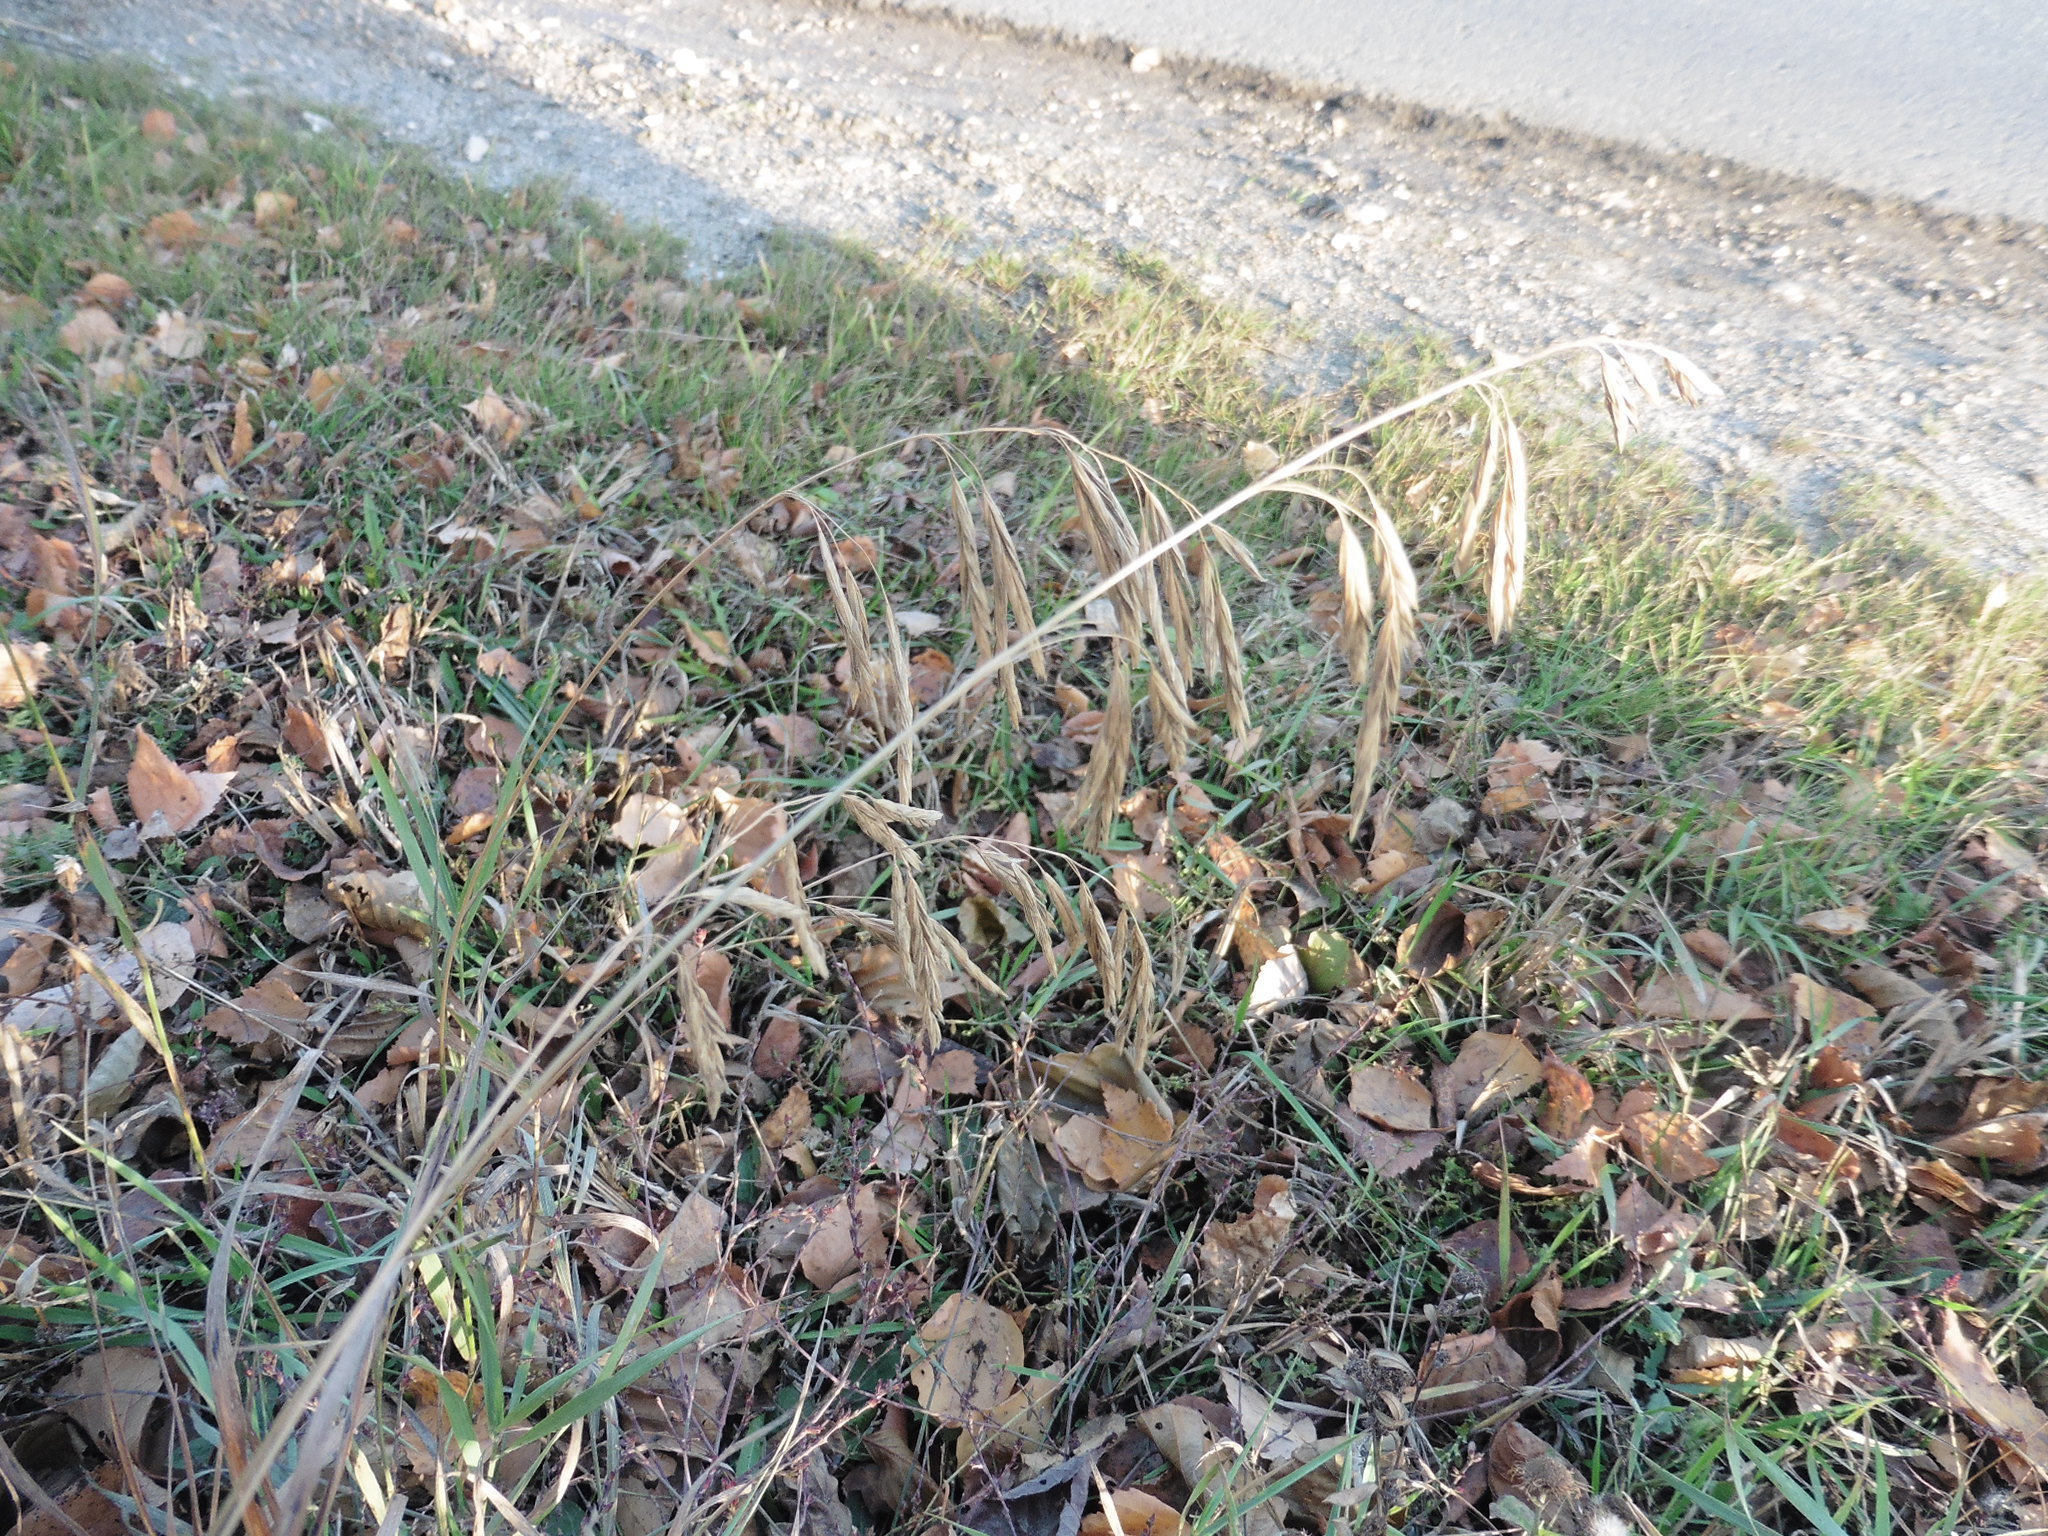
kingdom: Plantae
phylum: Tracheophyta
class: Liliopsida
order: Poales
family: Poaceae
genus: Bromus
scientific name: Bromus inermis
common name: Smooth brome
